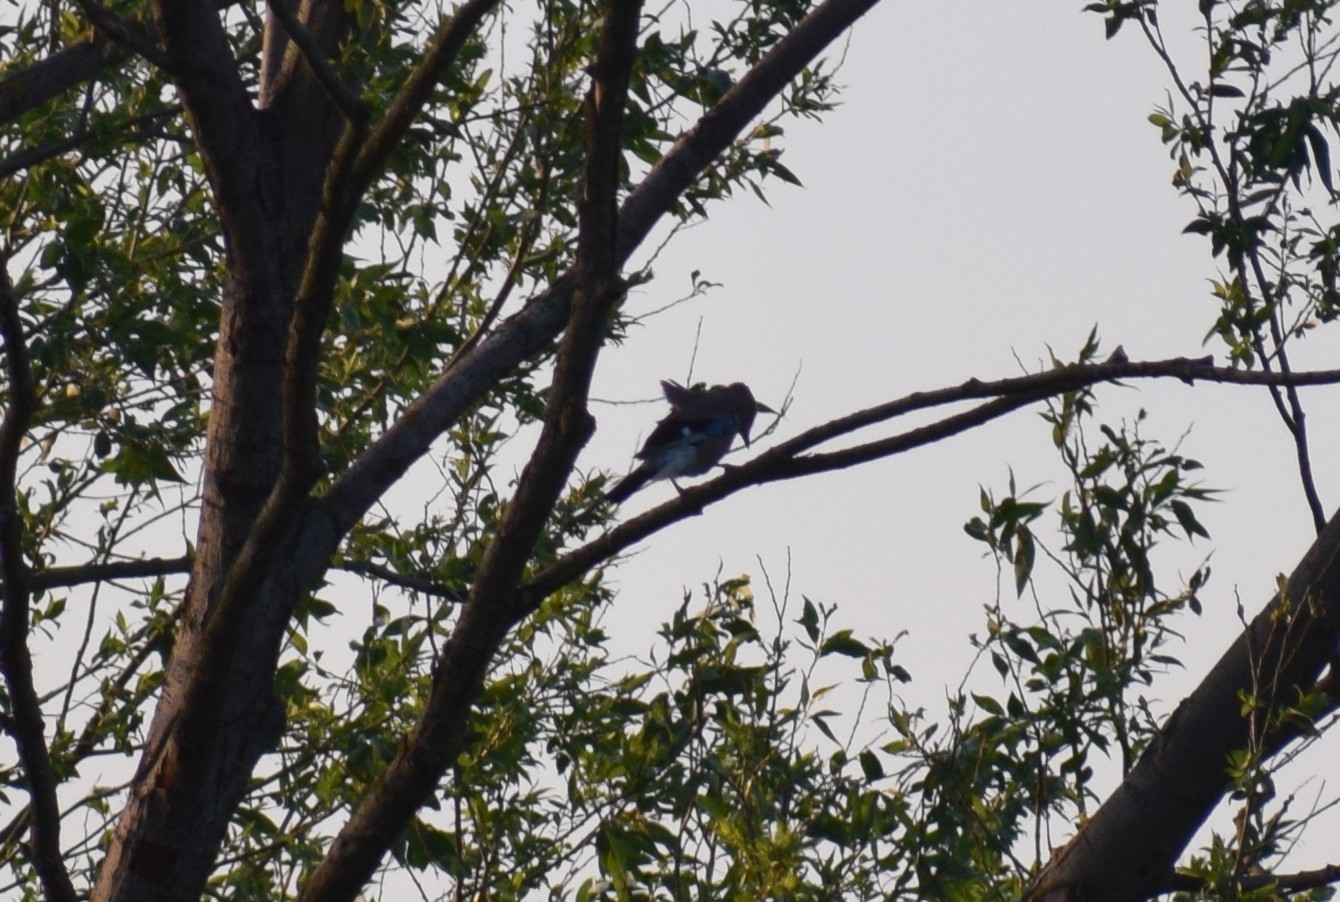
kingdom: Animalia
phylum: Chordata
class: Aves
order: Passeriformes
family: Corvidae
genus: Garrulus
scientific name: Garrulus glandarius
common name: Eurasian jay
